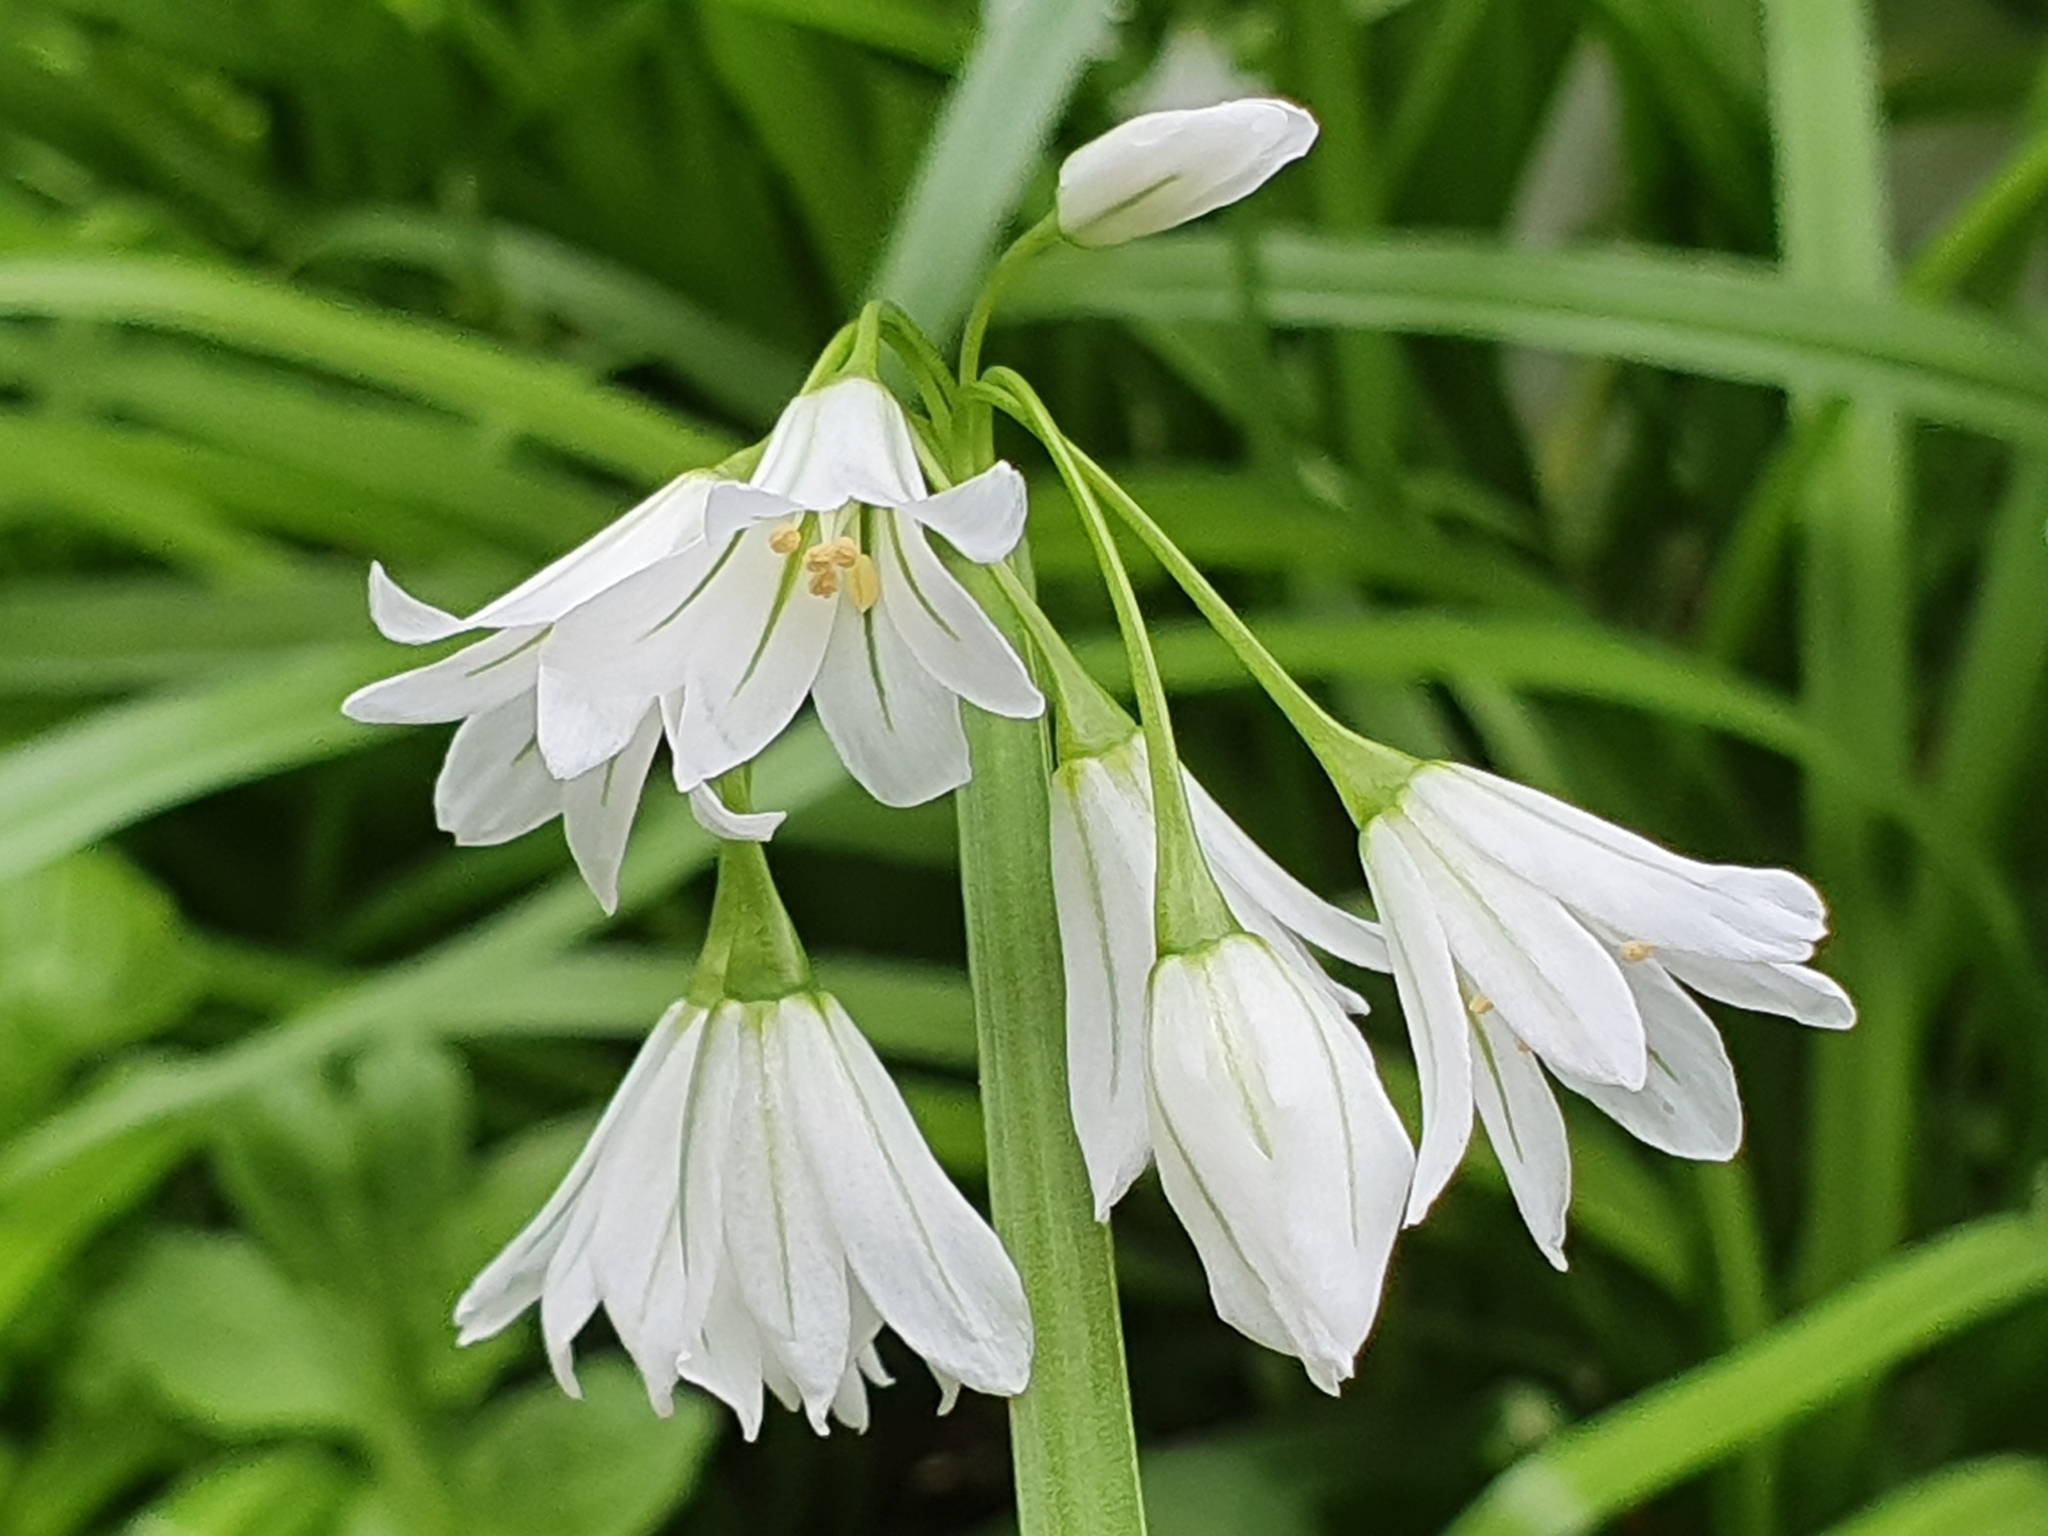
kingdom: Plantae
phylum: Tracheophyta
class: Liliopsida
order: Asparagales
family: Amaryllidaceae
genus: Allium
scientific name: Allium triquetrum
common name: Three-cornered garlic
